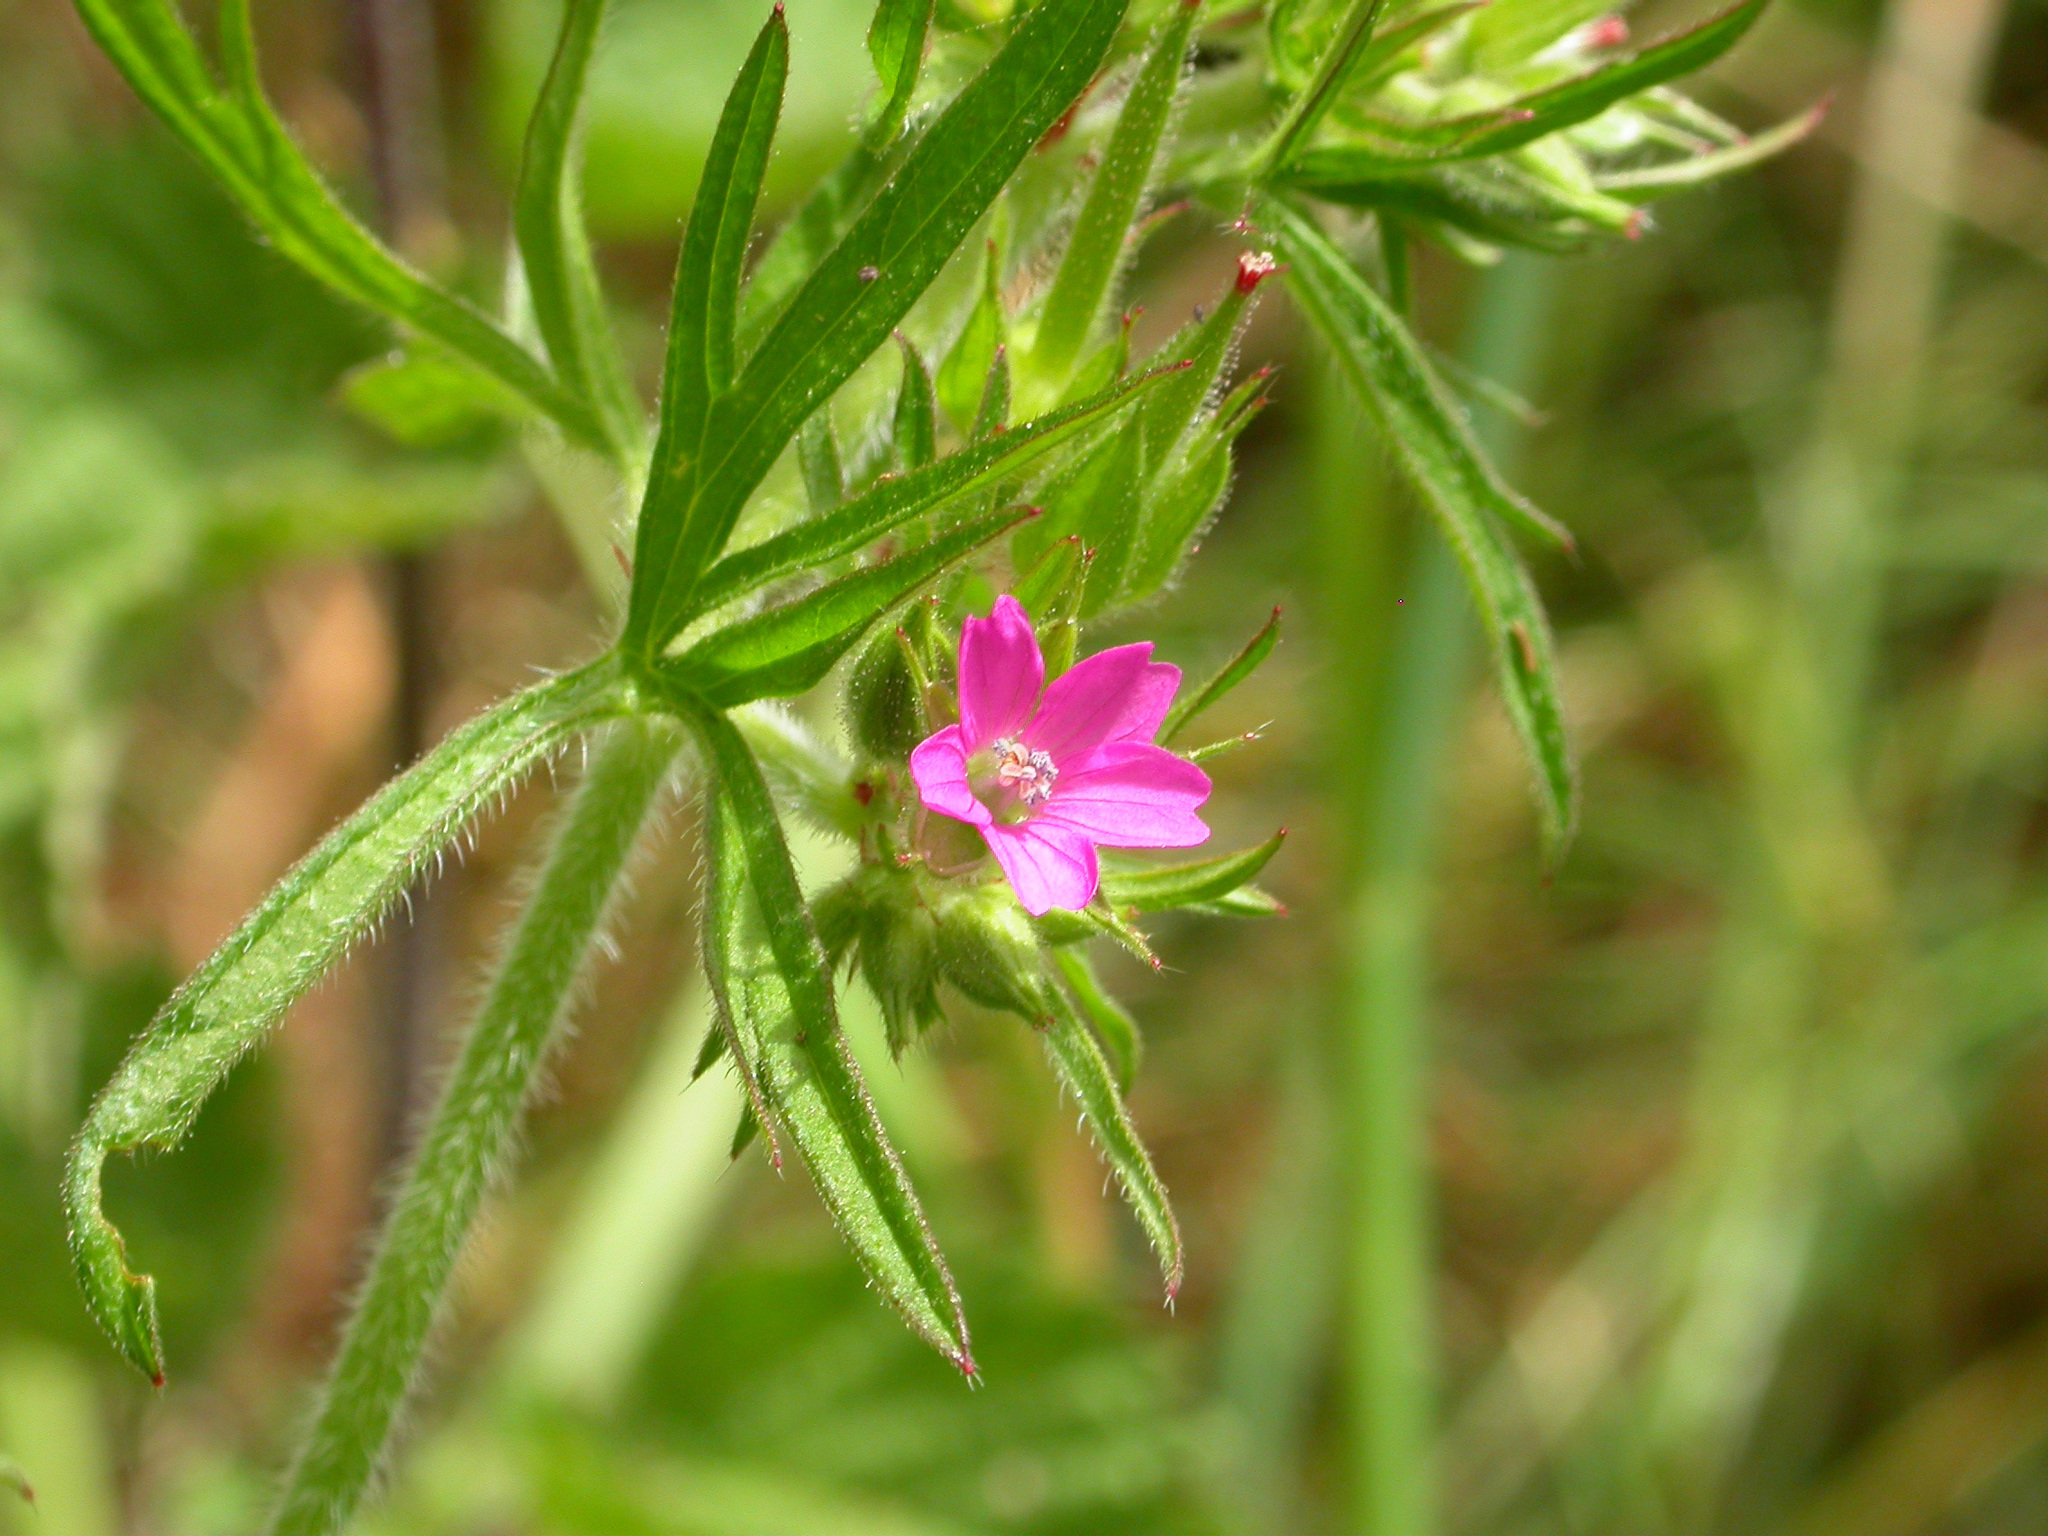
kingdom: Plantae
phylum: Tracheophyta
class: Magnoliopsida
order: Geraniales
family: Geraniaceae
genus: Geranium
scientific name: Geranium dissectum
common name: Cut-leaved crane's-bill
